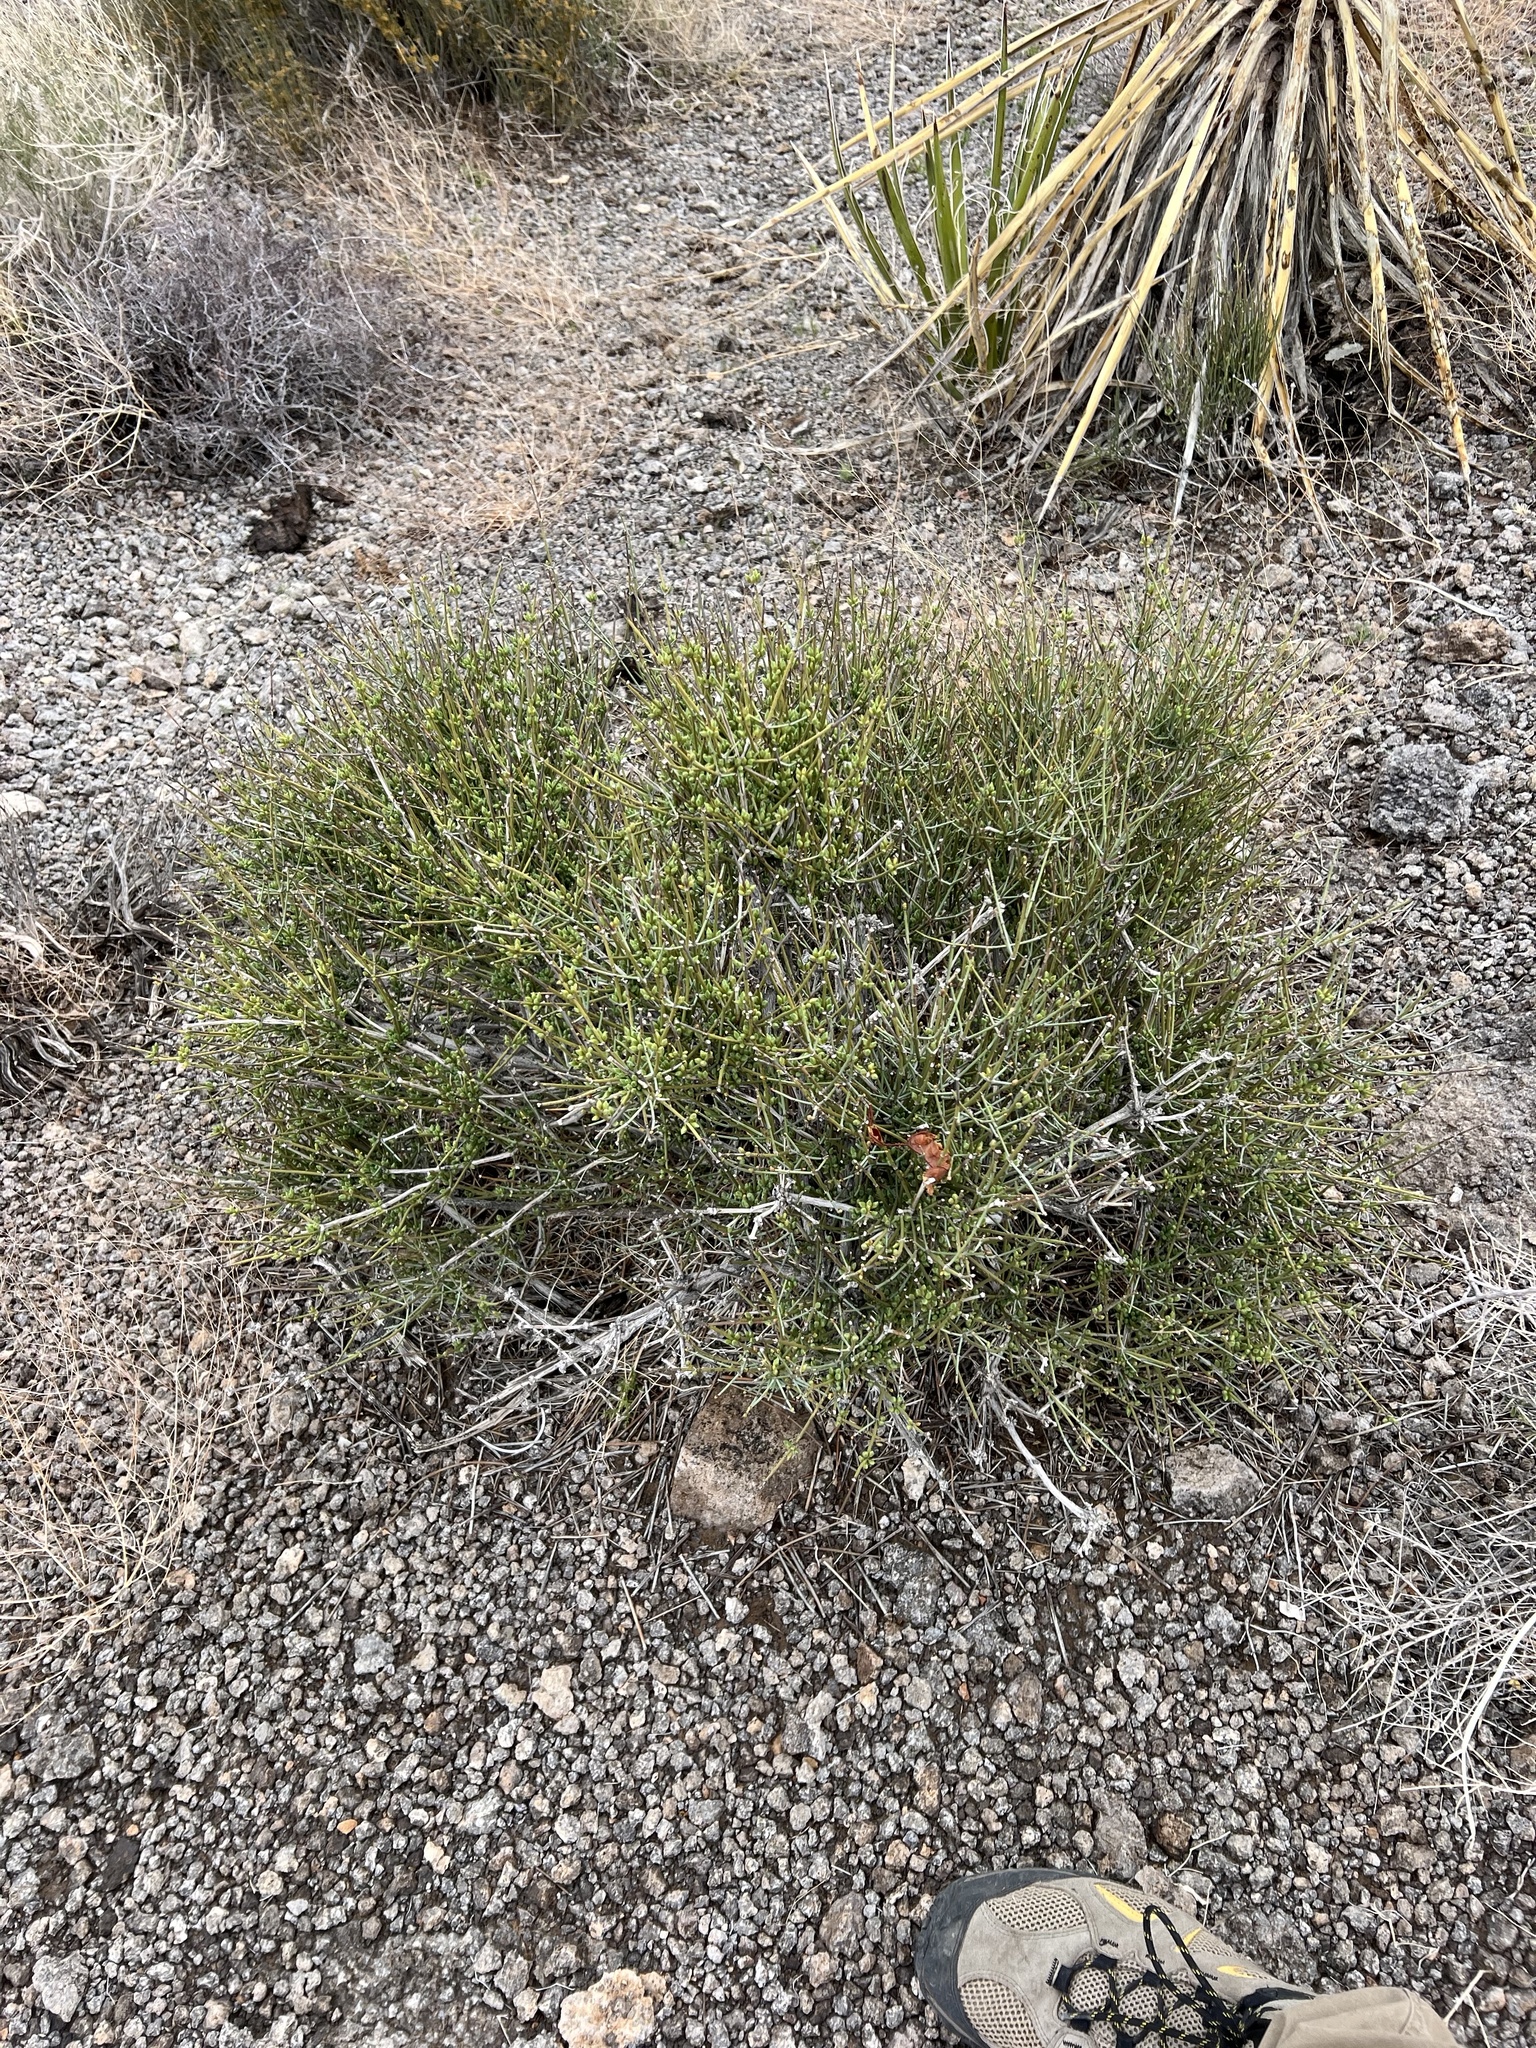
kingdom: Plantae
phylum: Tracheophyta
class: Gnetopsida
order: Ephedrales
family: Ephedraceae
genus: Ephedra
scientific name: Ephedra nevadensis
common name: Gray ephedra
